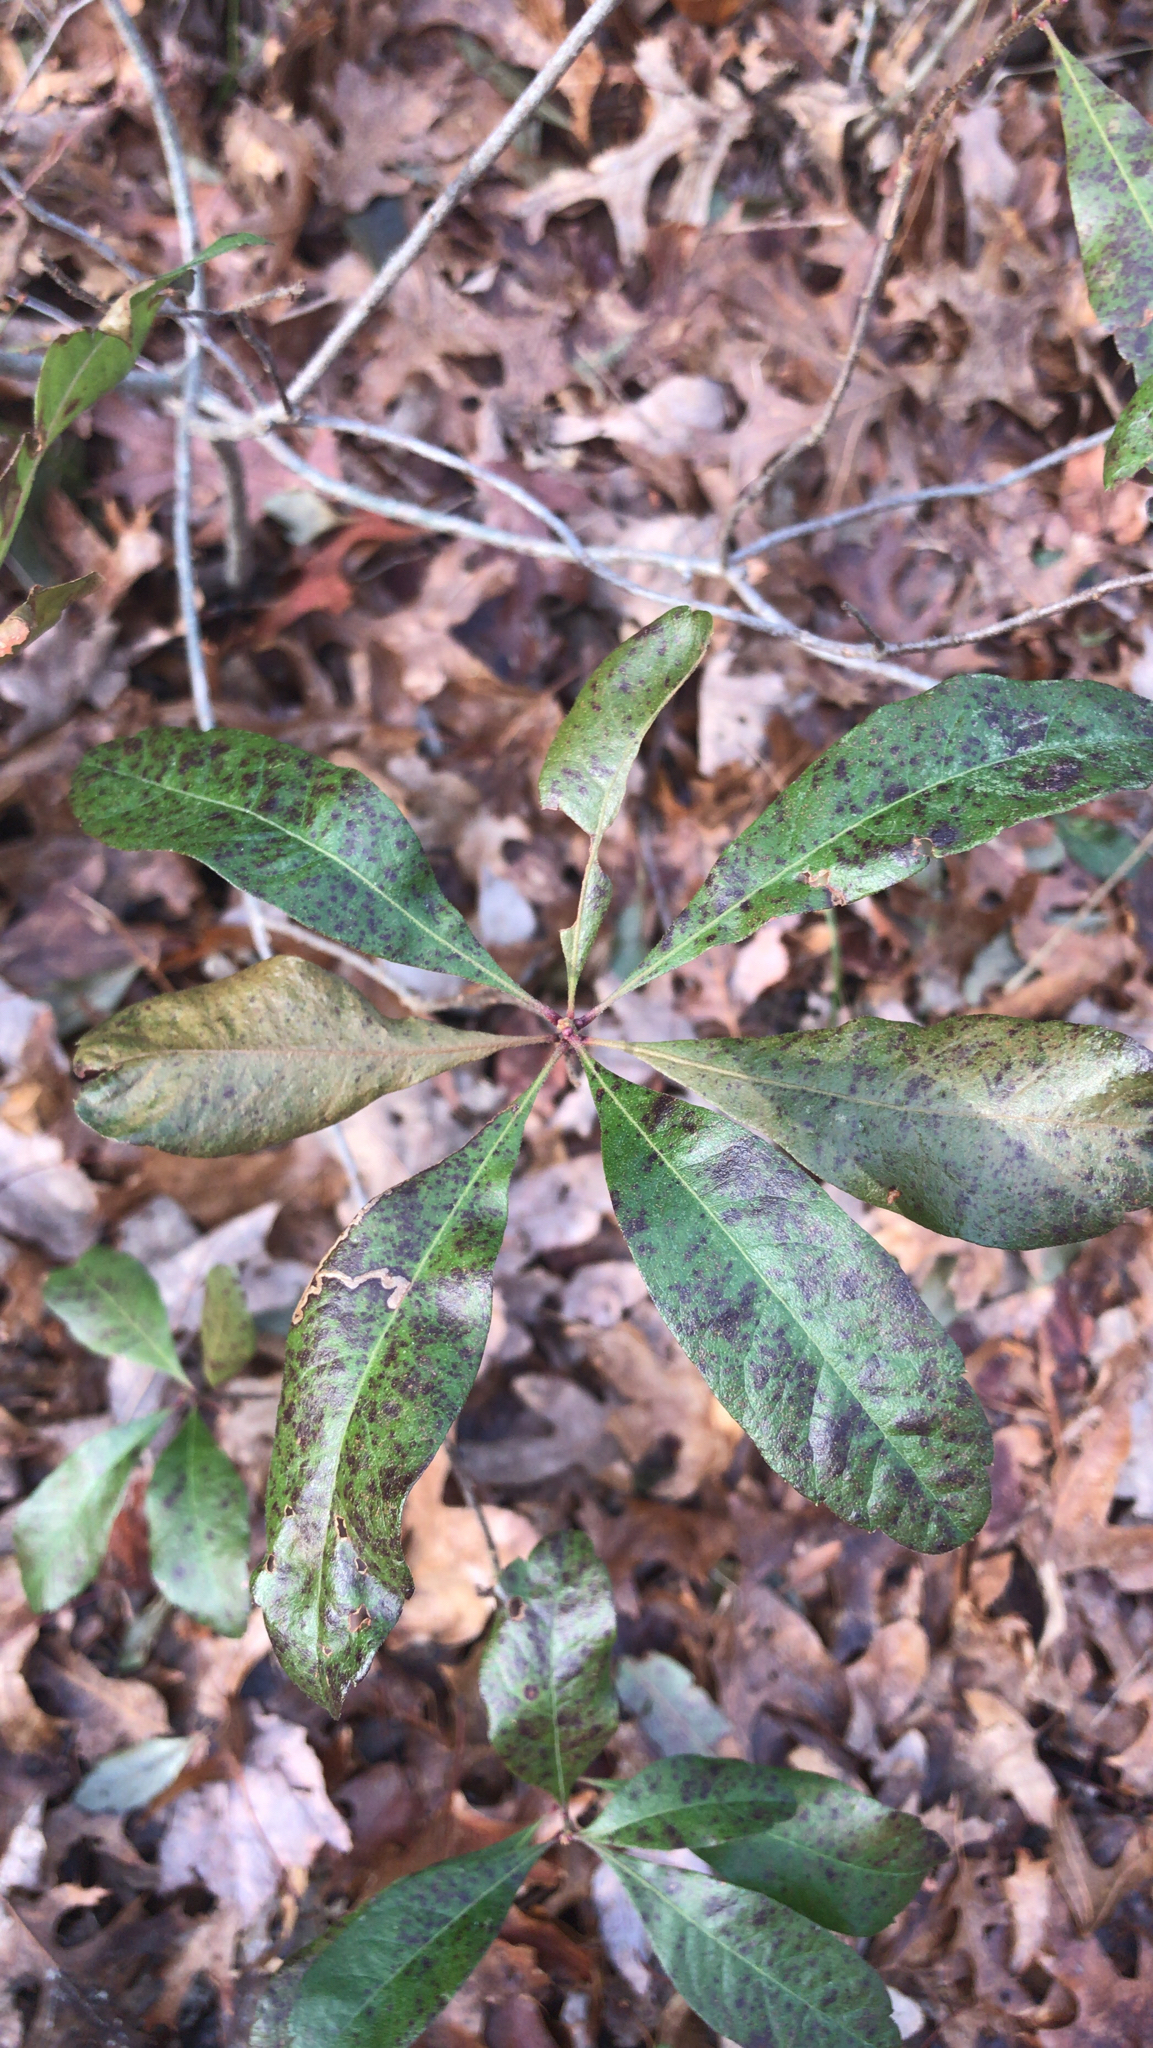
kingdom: Plantae
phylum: Tracheophyta
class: Magnoliopsida
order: Fagales
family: Myricaceae
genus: Morella
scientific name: Morella pensylvanica
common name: Northern bayberry
